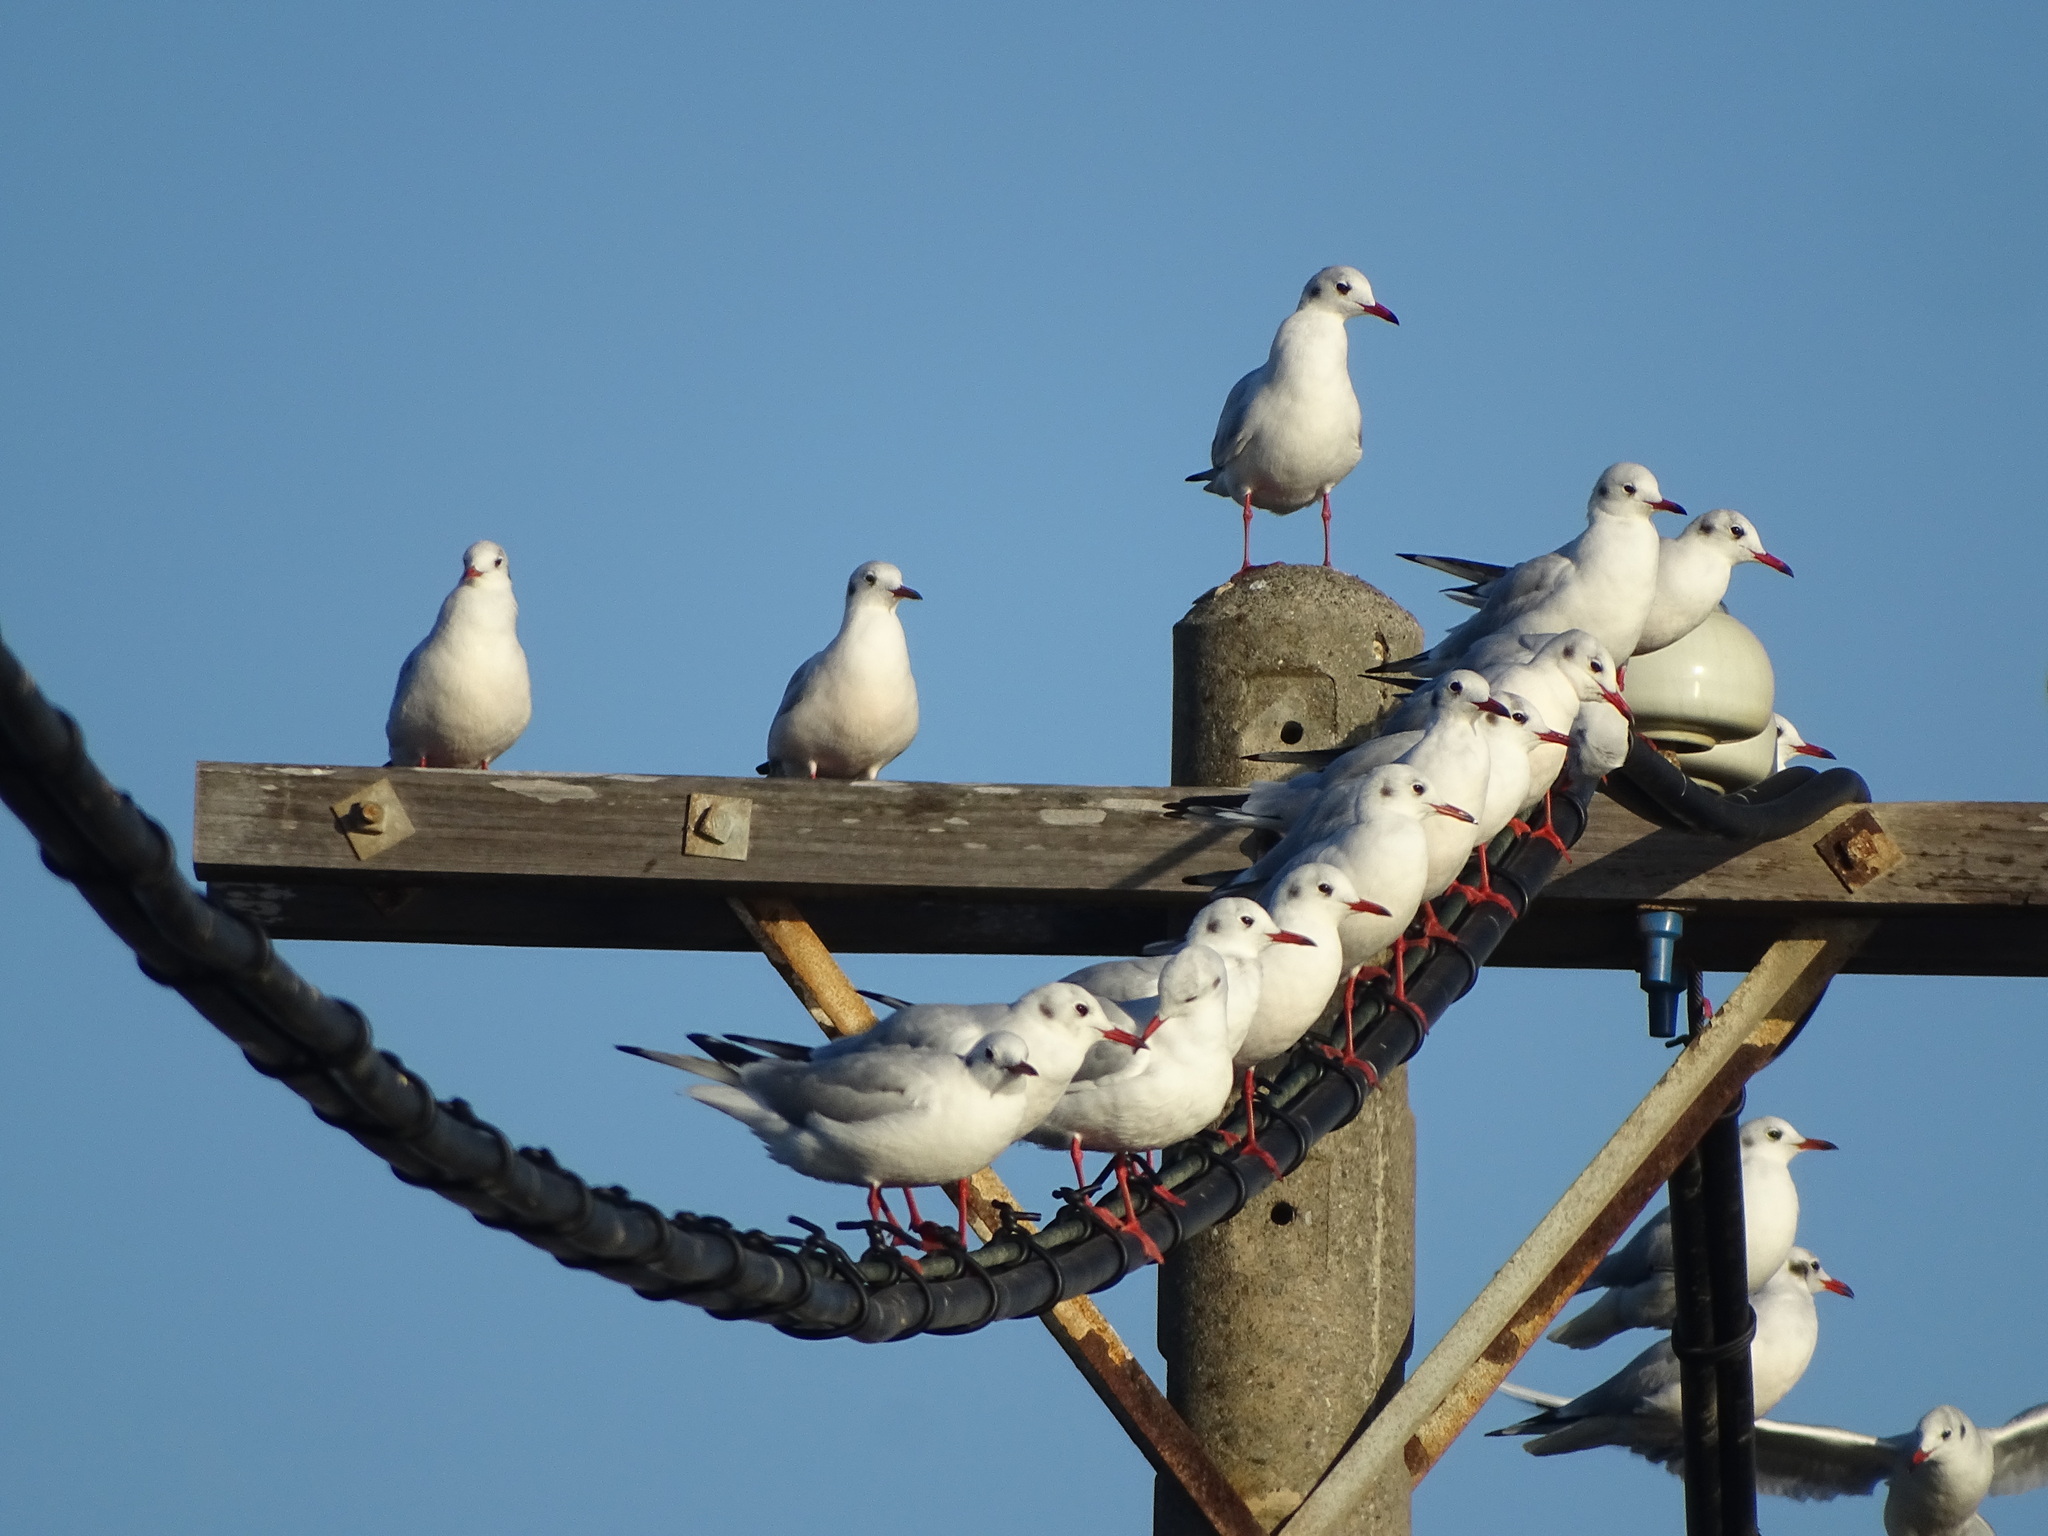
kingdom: Animalia
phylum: Chordata
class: Aves
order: Charadriiformes
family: Laridae
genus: Chroicocephalus
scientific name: Chroicocephalus ridibundus
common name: Black-headed gull
